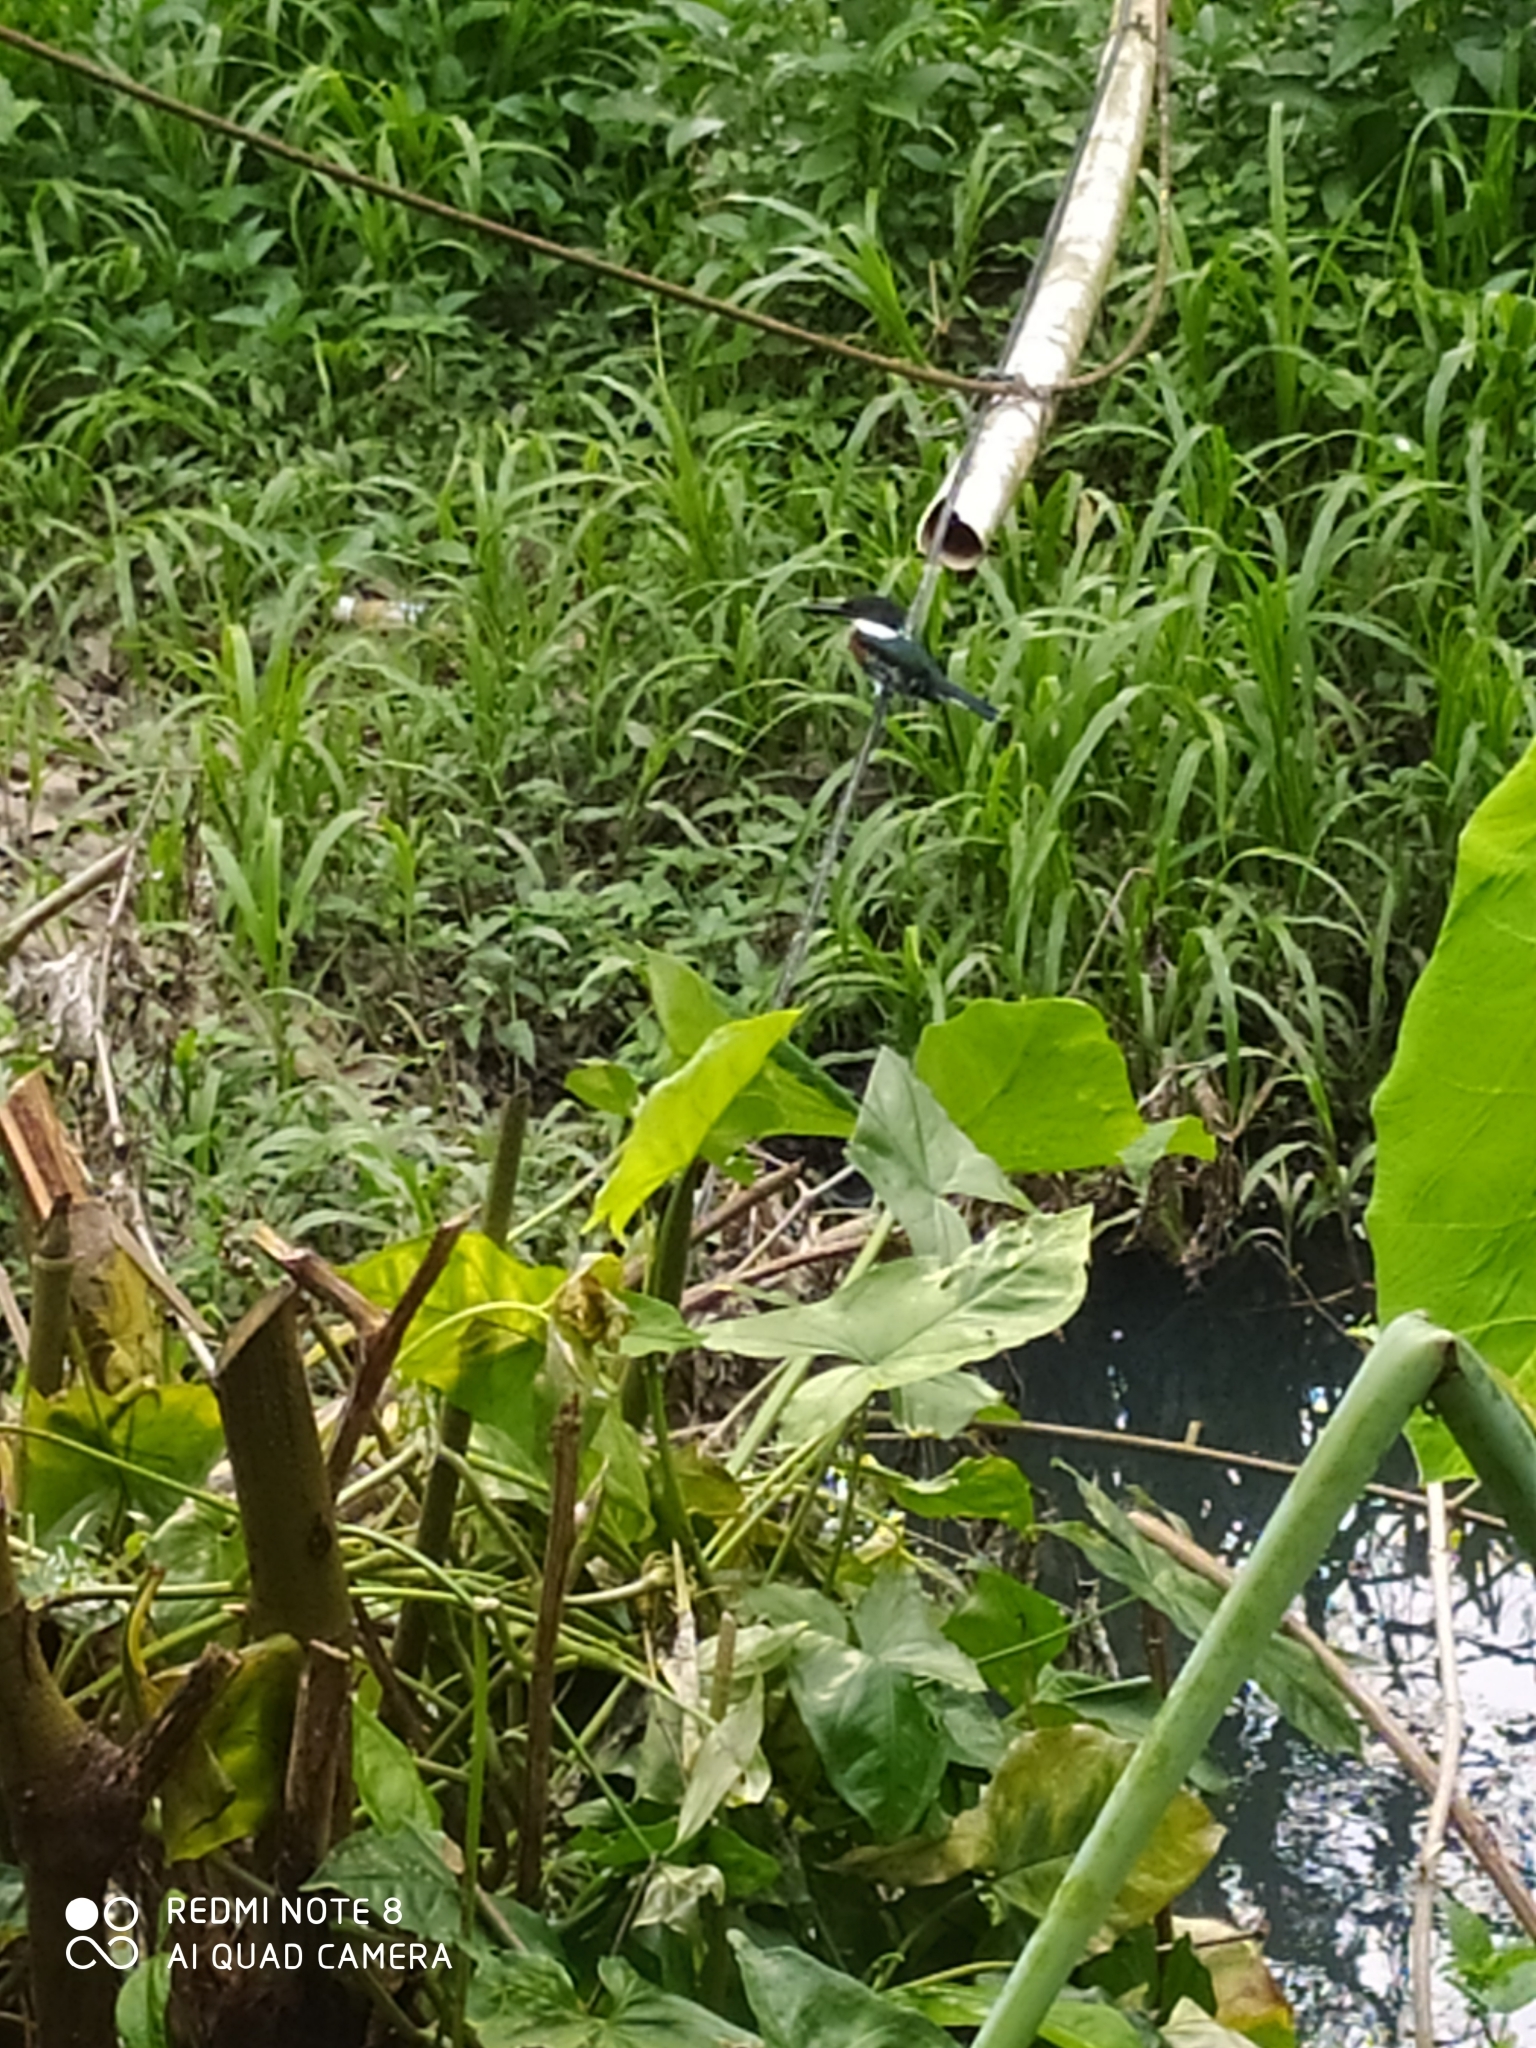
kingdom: Animalia
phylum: Chordata
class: Aves
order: Coraciiformes
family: Alcedinidae
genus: Chloroceryle
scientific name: Chloroceryle americana
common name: Green kingfisher
